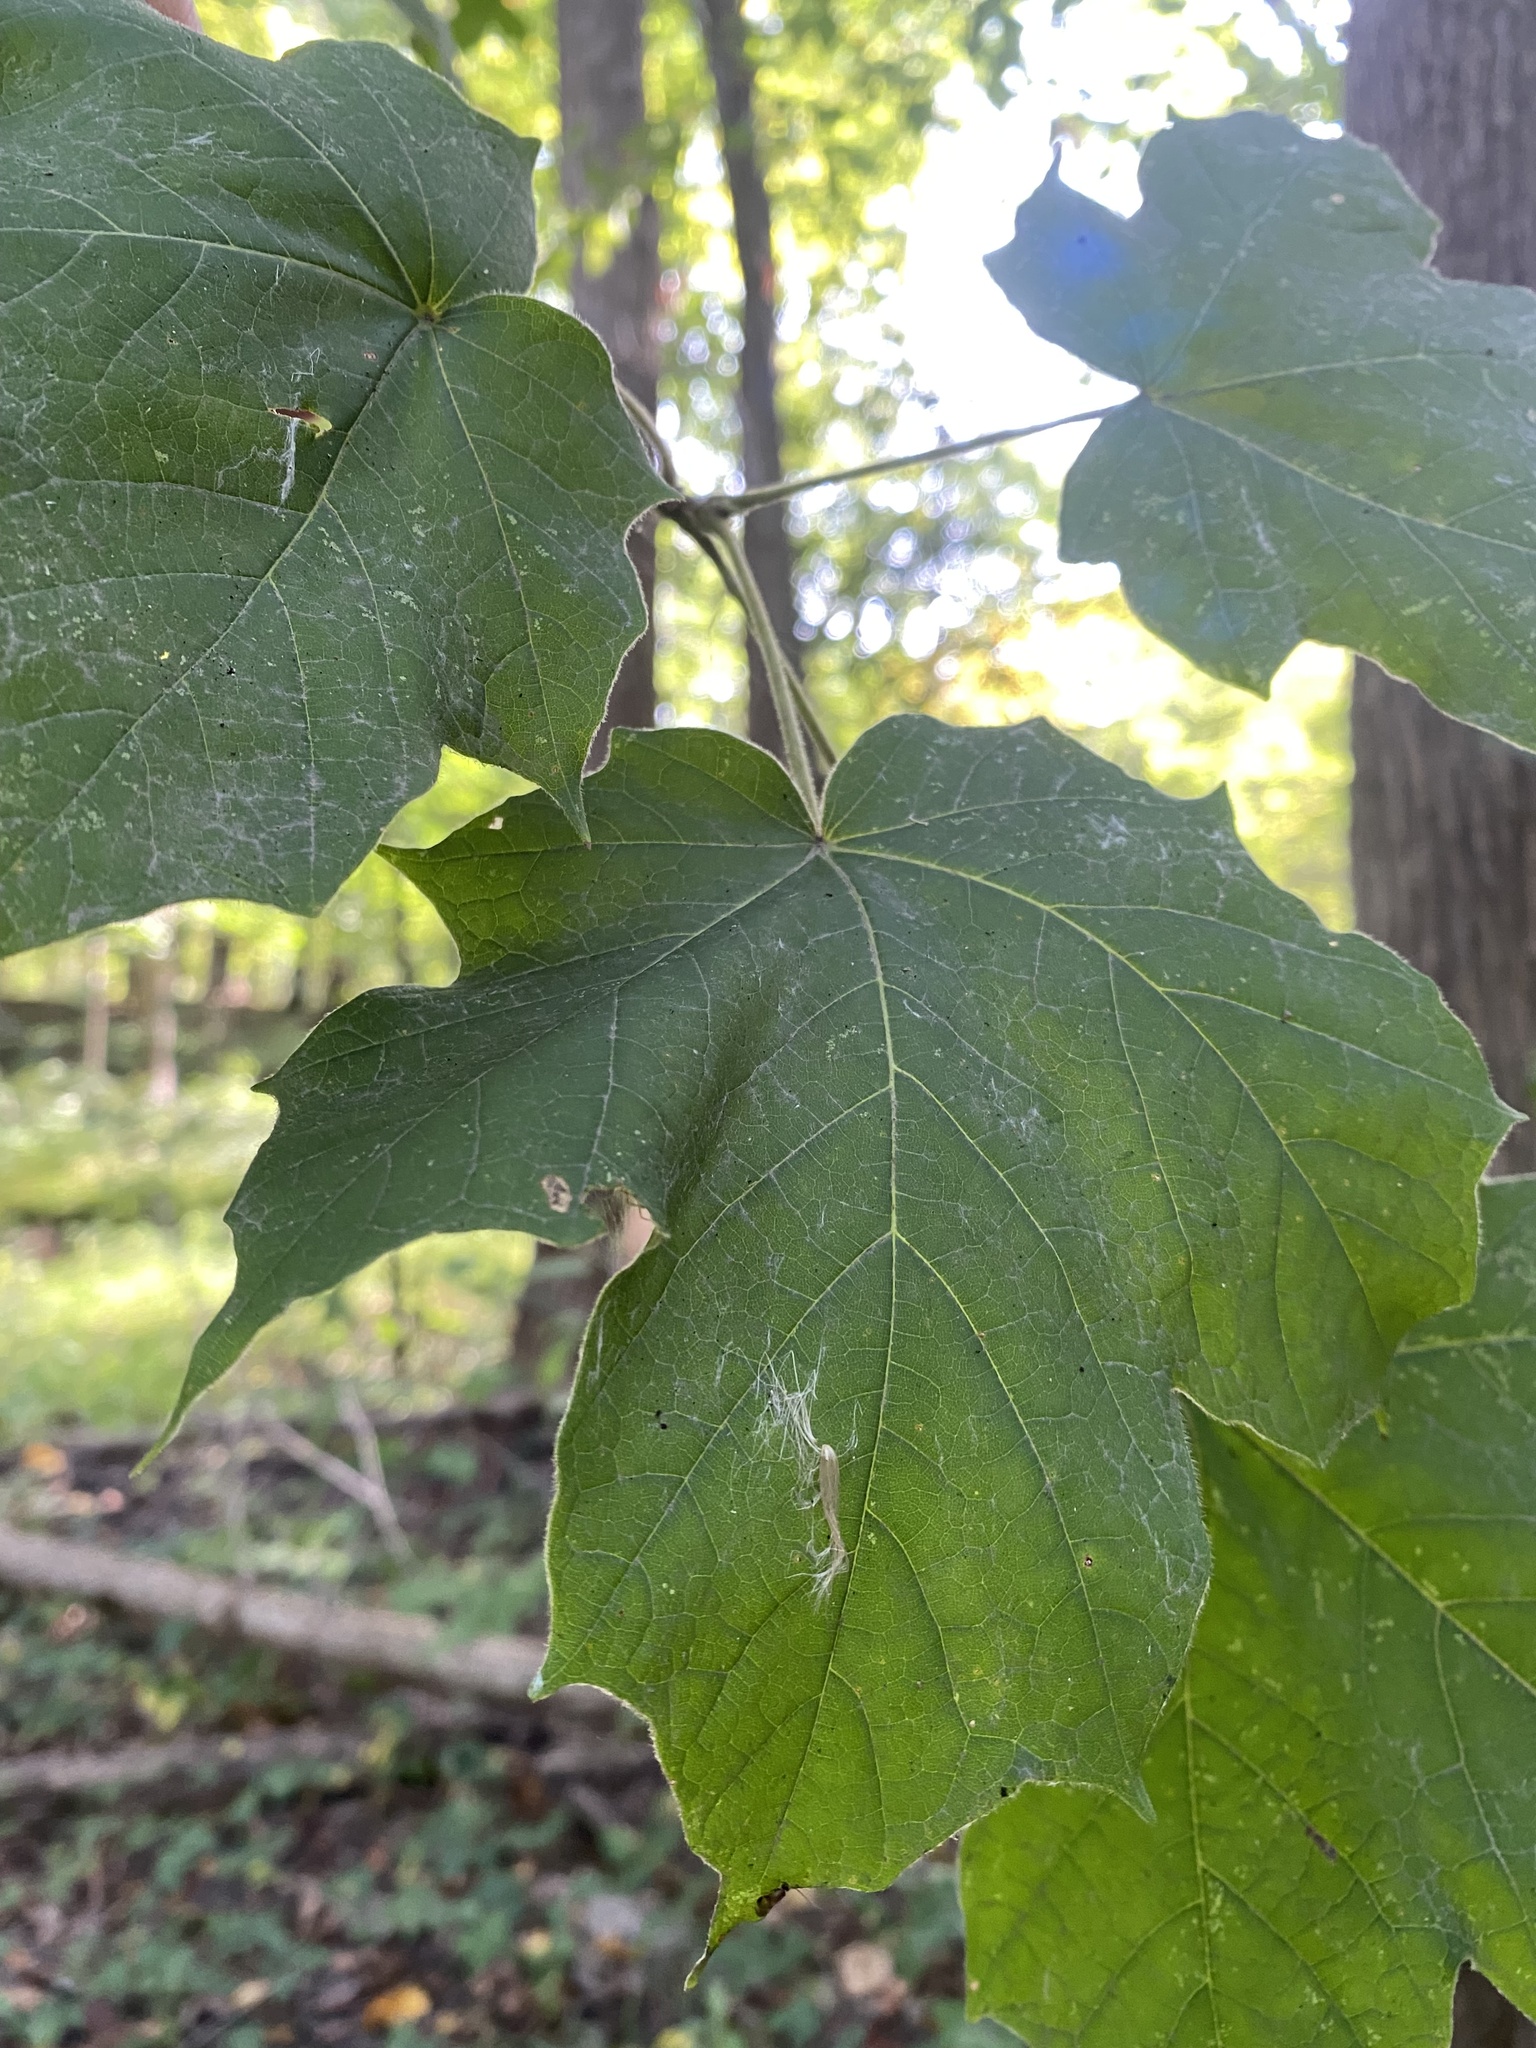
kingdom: Plantae
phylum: Tracheophyta
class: Magnoliopsida
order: Sapindales
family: Sapindaceae
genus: Acer
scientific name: Acer nigrum
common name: Black maple
